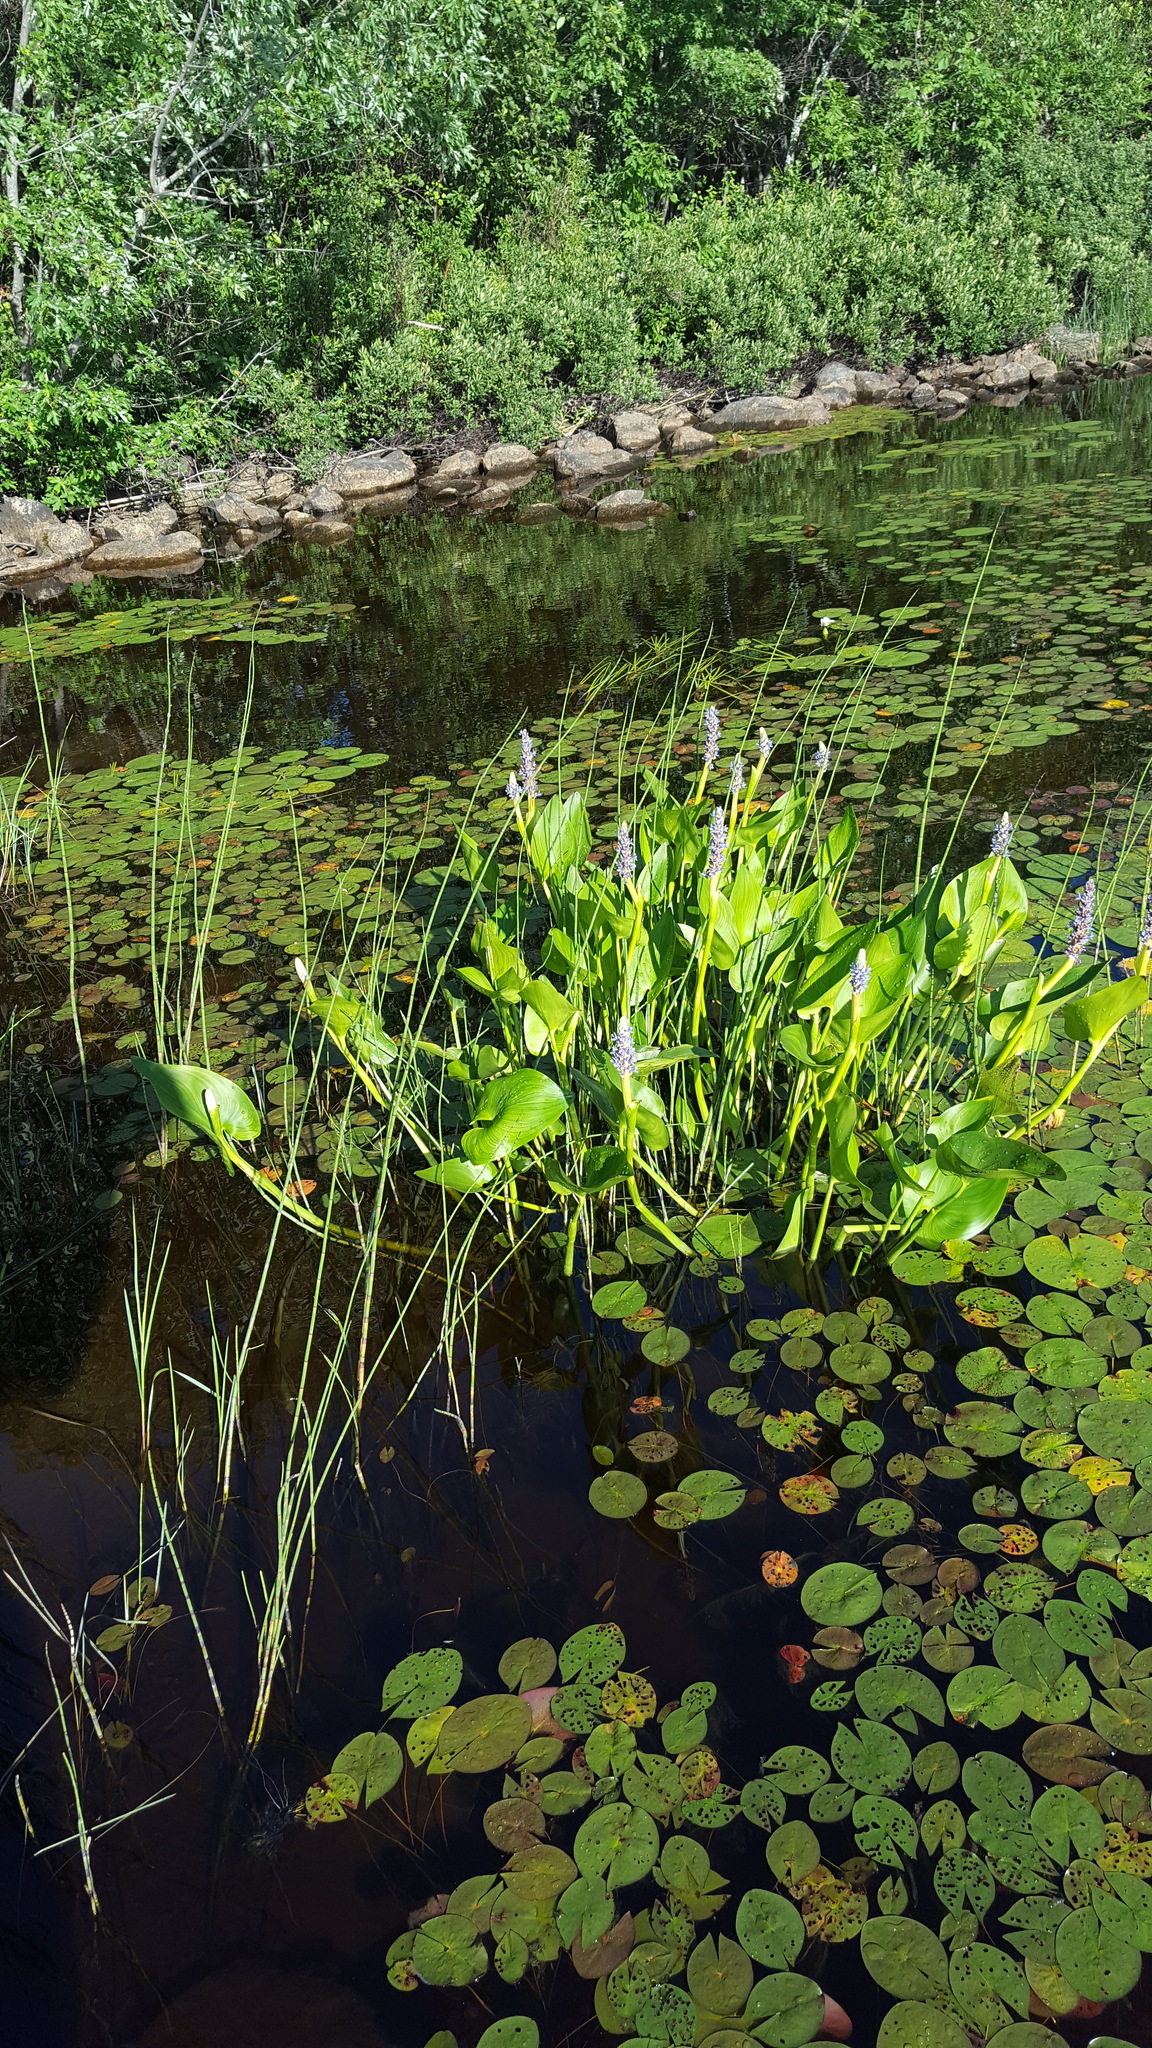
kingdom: Plantae
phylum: Tracheophyta
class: Liliopsida
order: Commelinales
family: Pontederiaceae
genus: Pontederia
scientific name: Pontederia cordata
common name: Pickerelweed
